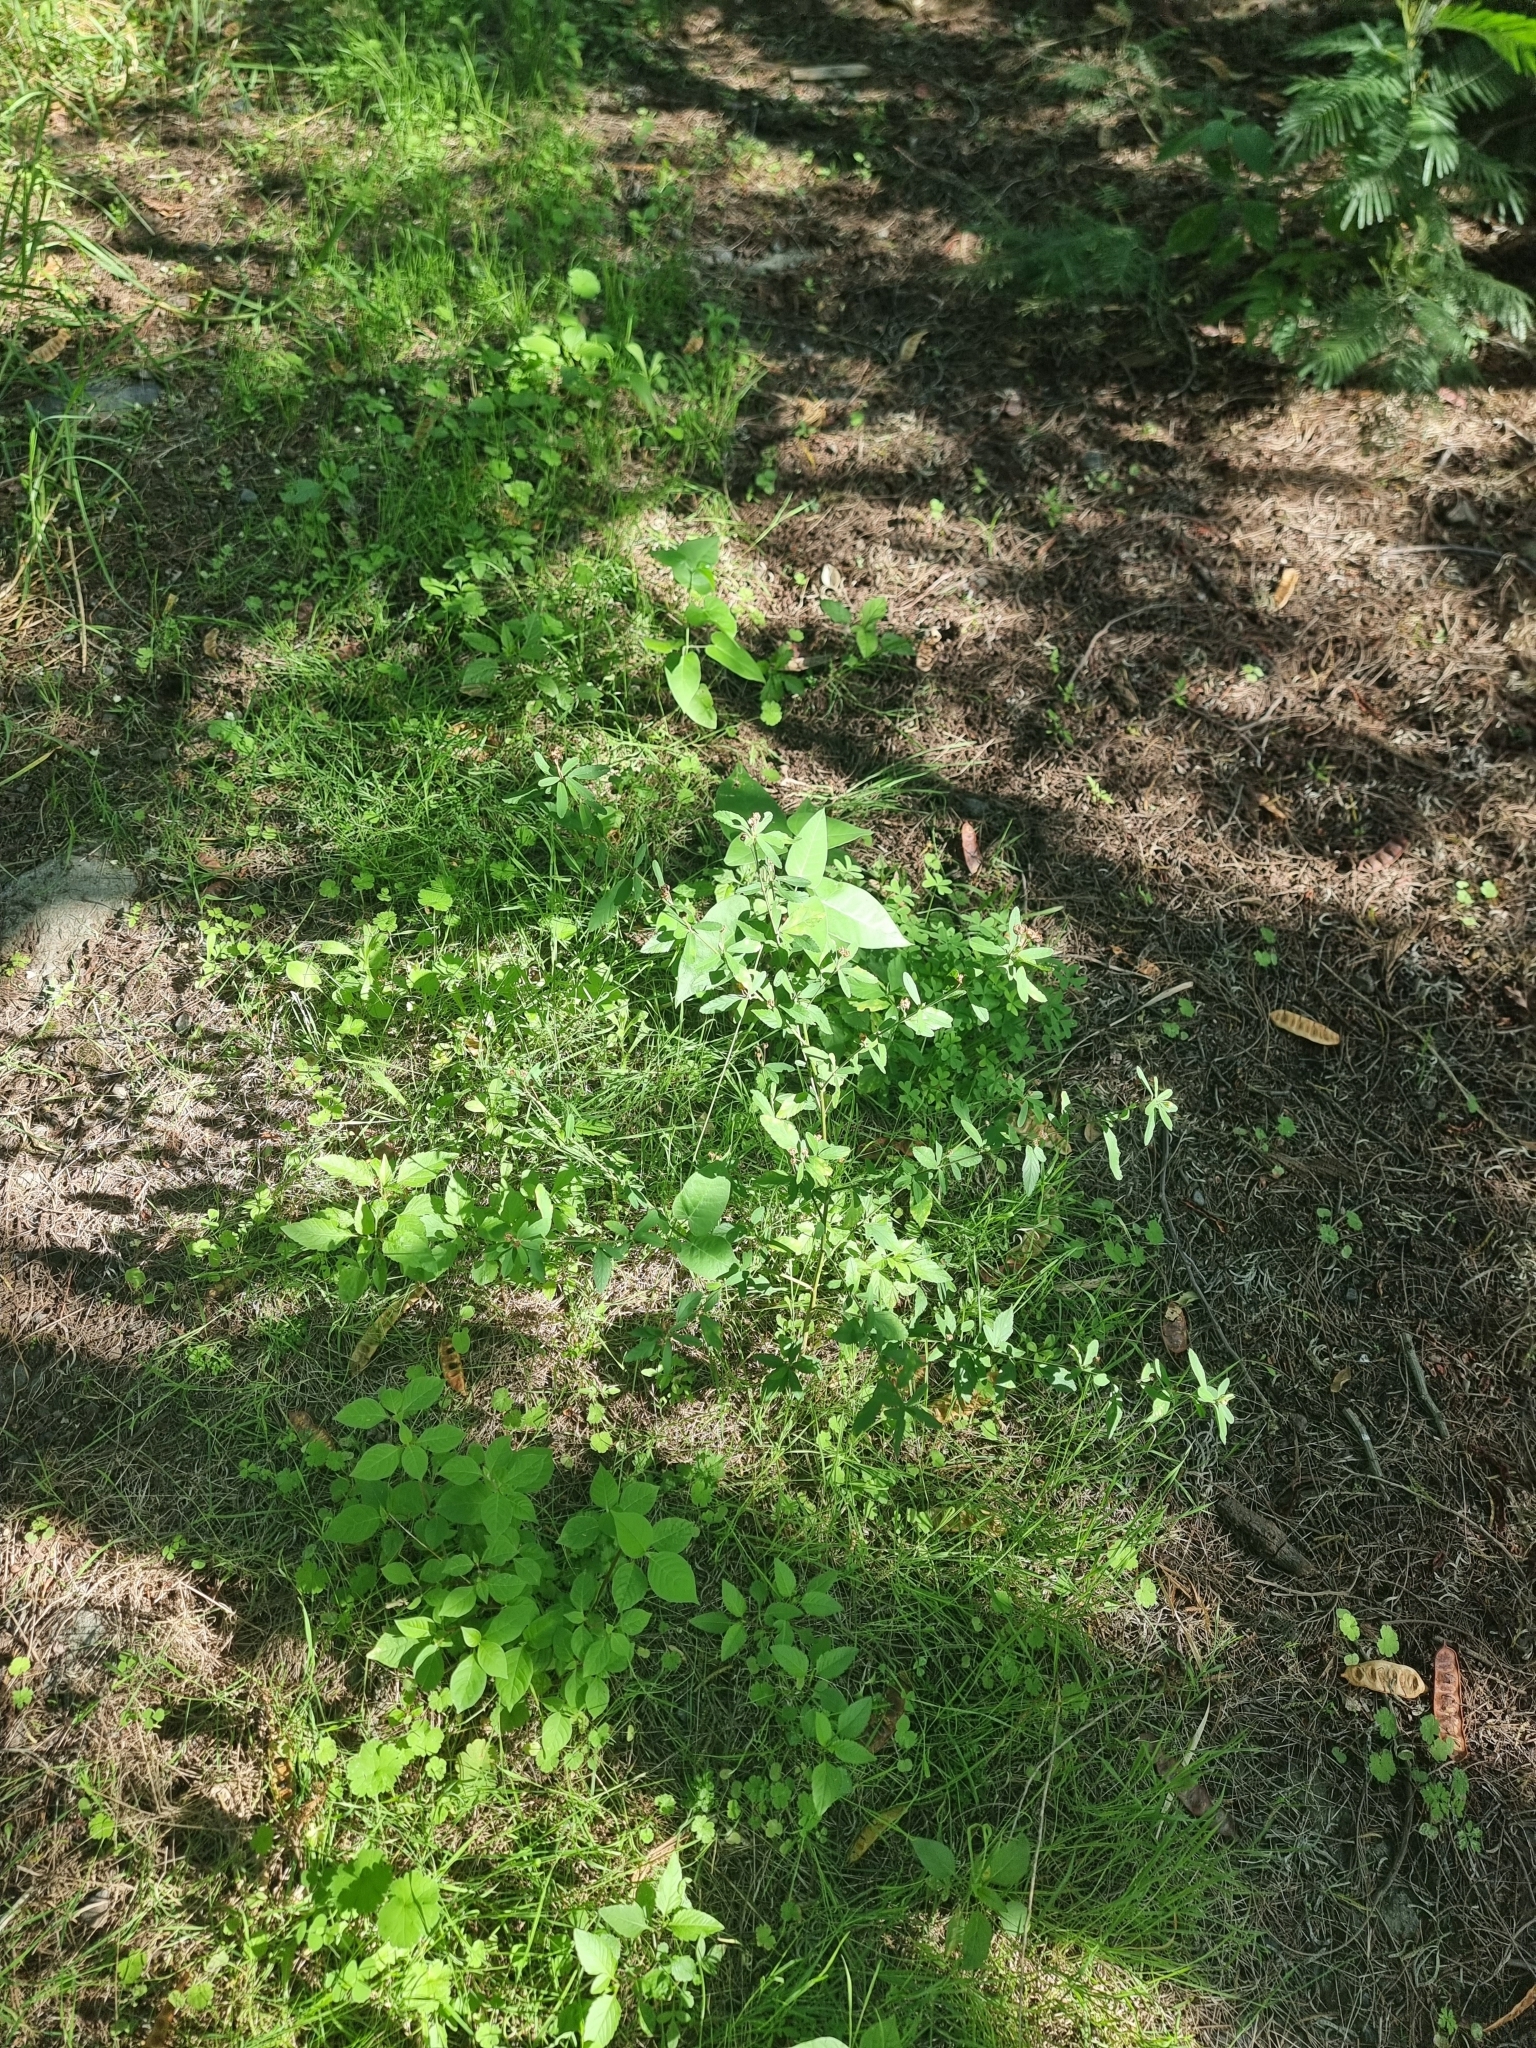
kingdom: Plantae
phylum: Tracheophyta
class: Magnoliopsida
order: Malvales
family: Malvaceae
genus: Sida
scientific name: Sida rhombifolia
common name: Queensland-hemp
